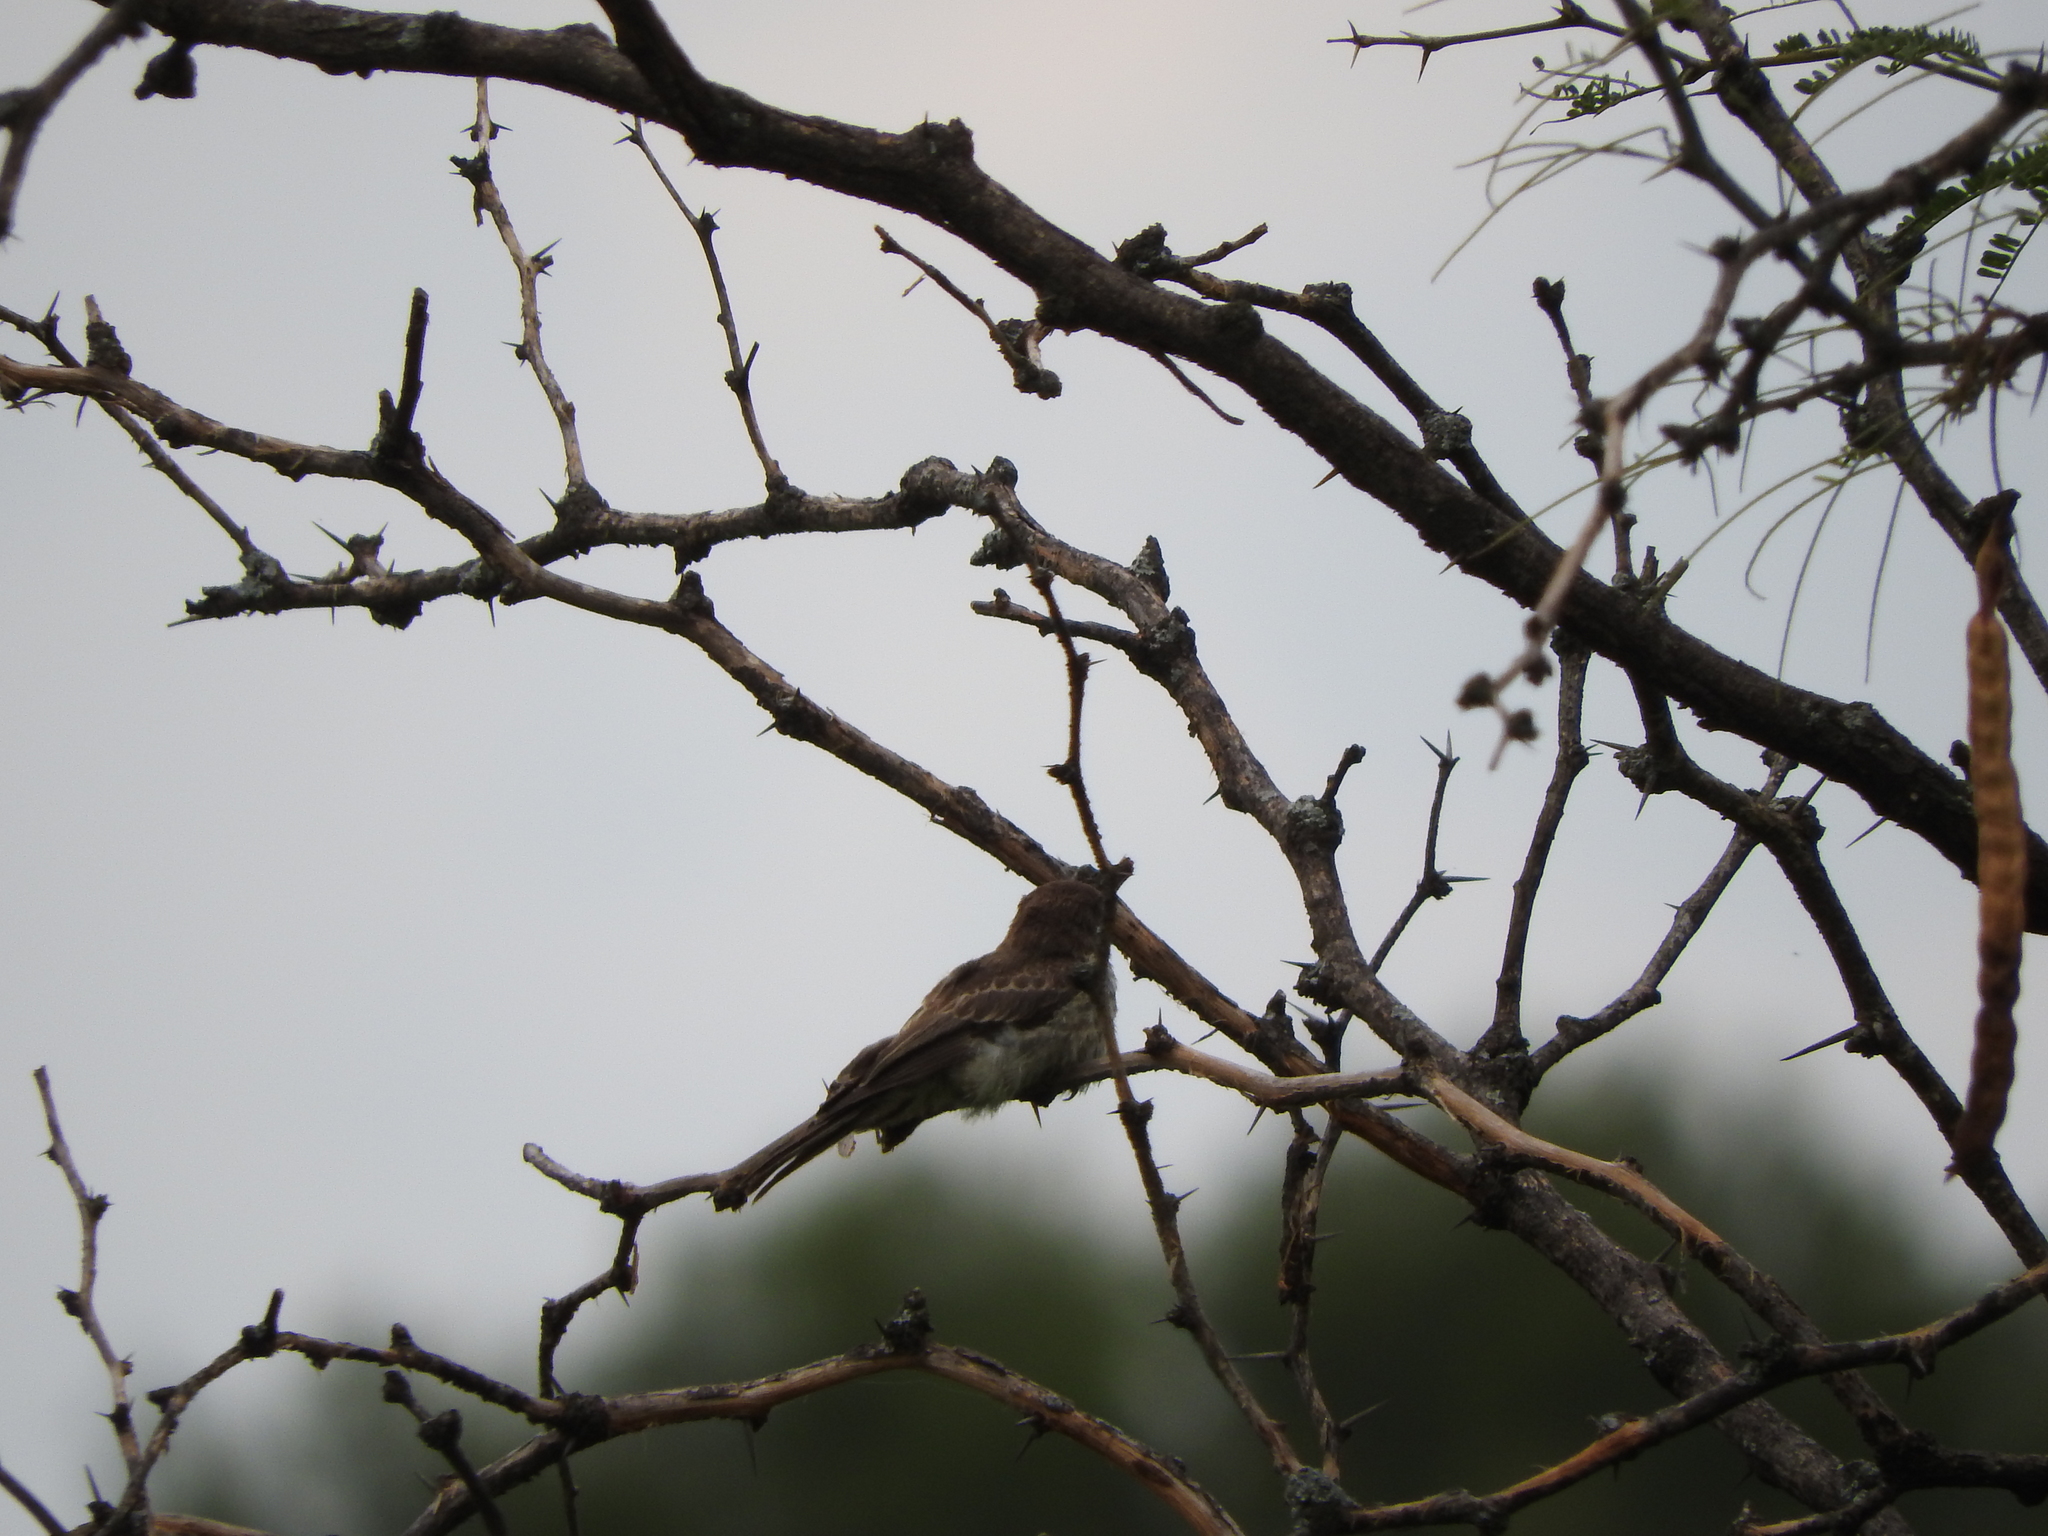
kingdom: Animalia
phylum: Chordata
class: Aves
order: Passeriformes
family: Tyrannidae
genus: Pyrocephalus
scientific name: Pyrocephalus rubinus
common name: Vermilion flycatcher
